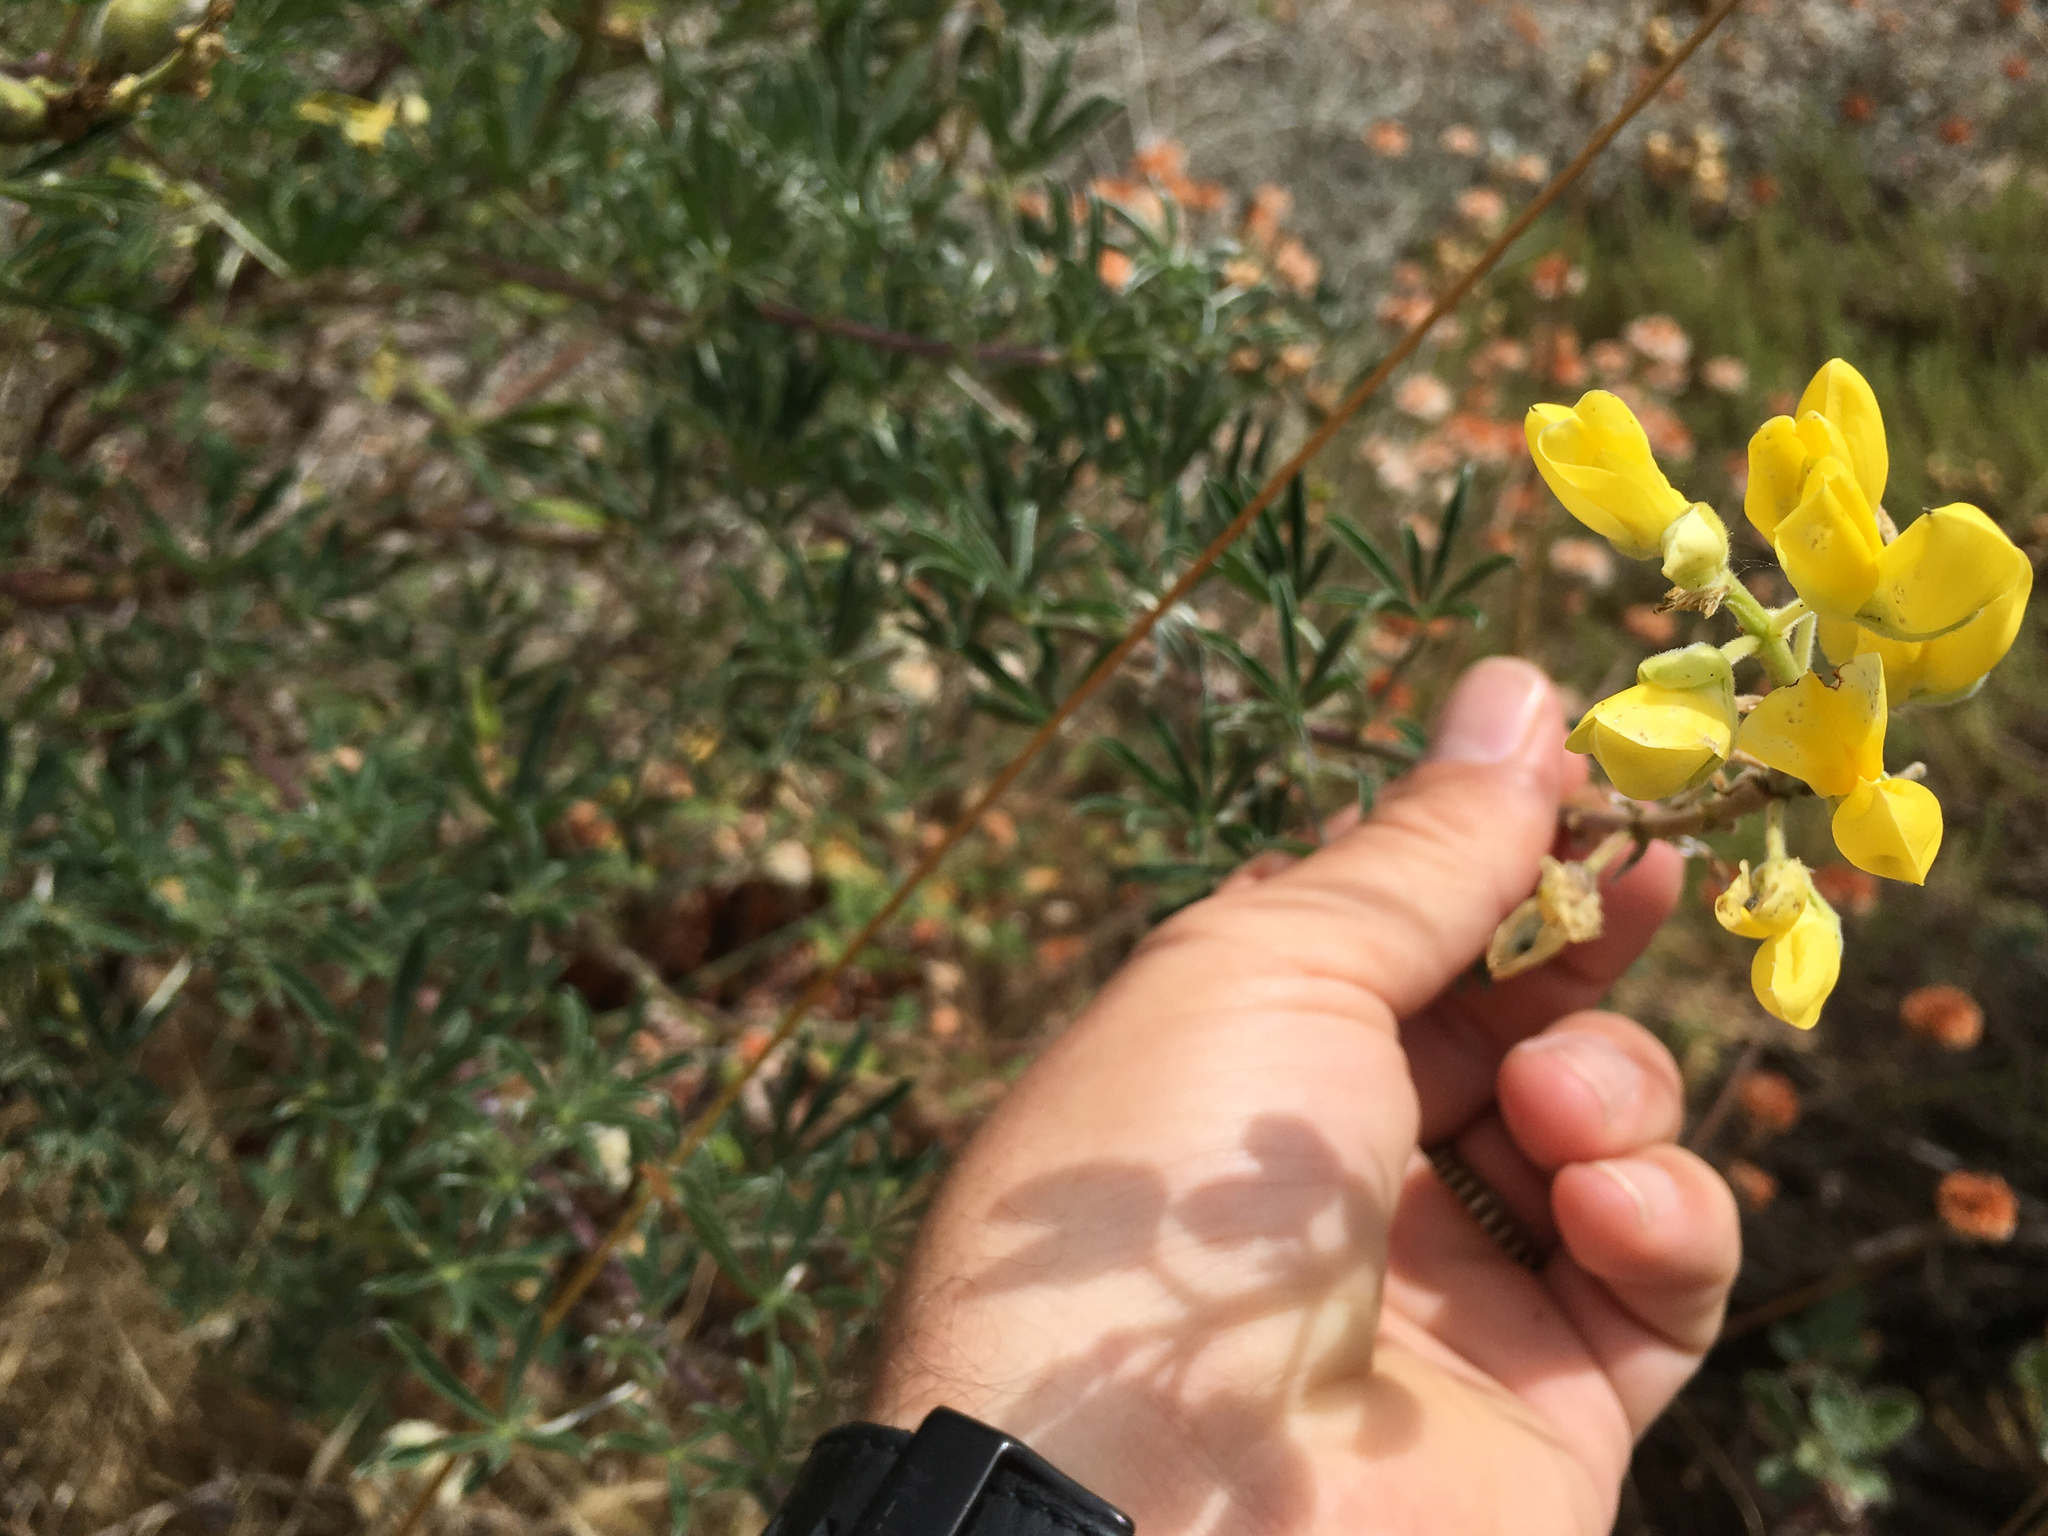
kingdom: Plantae
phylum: Tracheophyta
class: Magnoliopsida
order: Fabales
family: Fabaceae
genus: Lupinus
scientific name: Lupinus arboreus
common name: Yellow bush lupine
